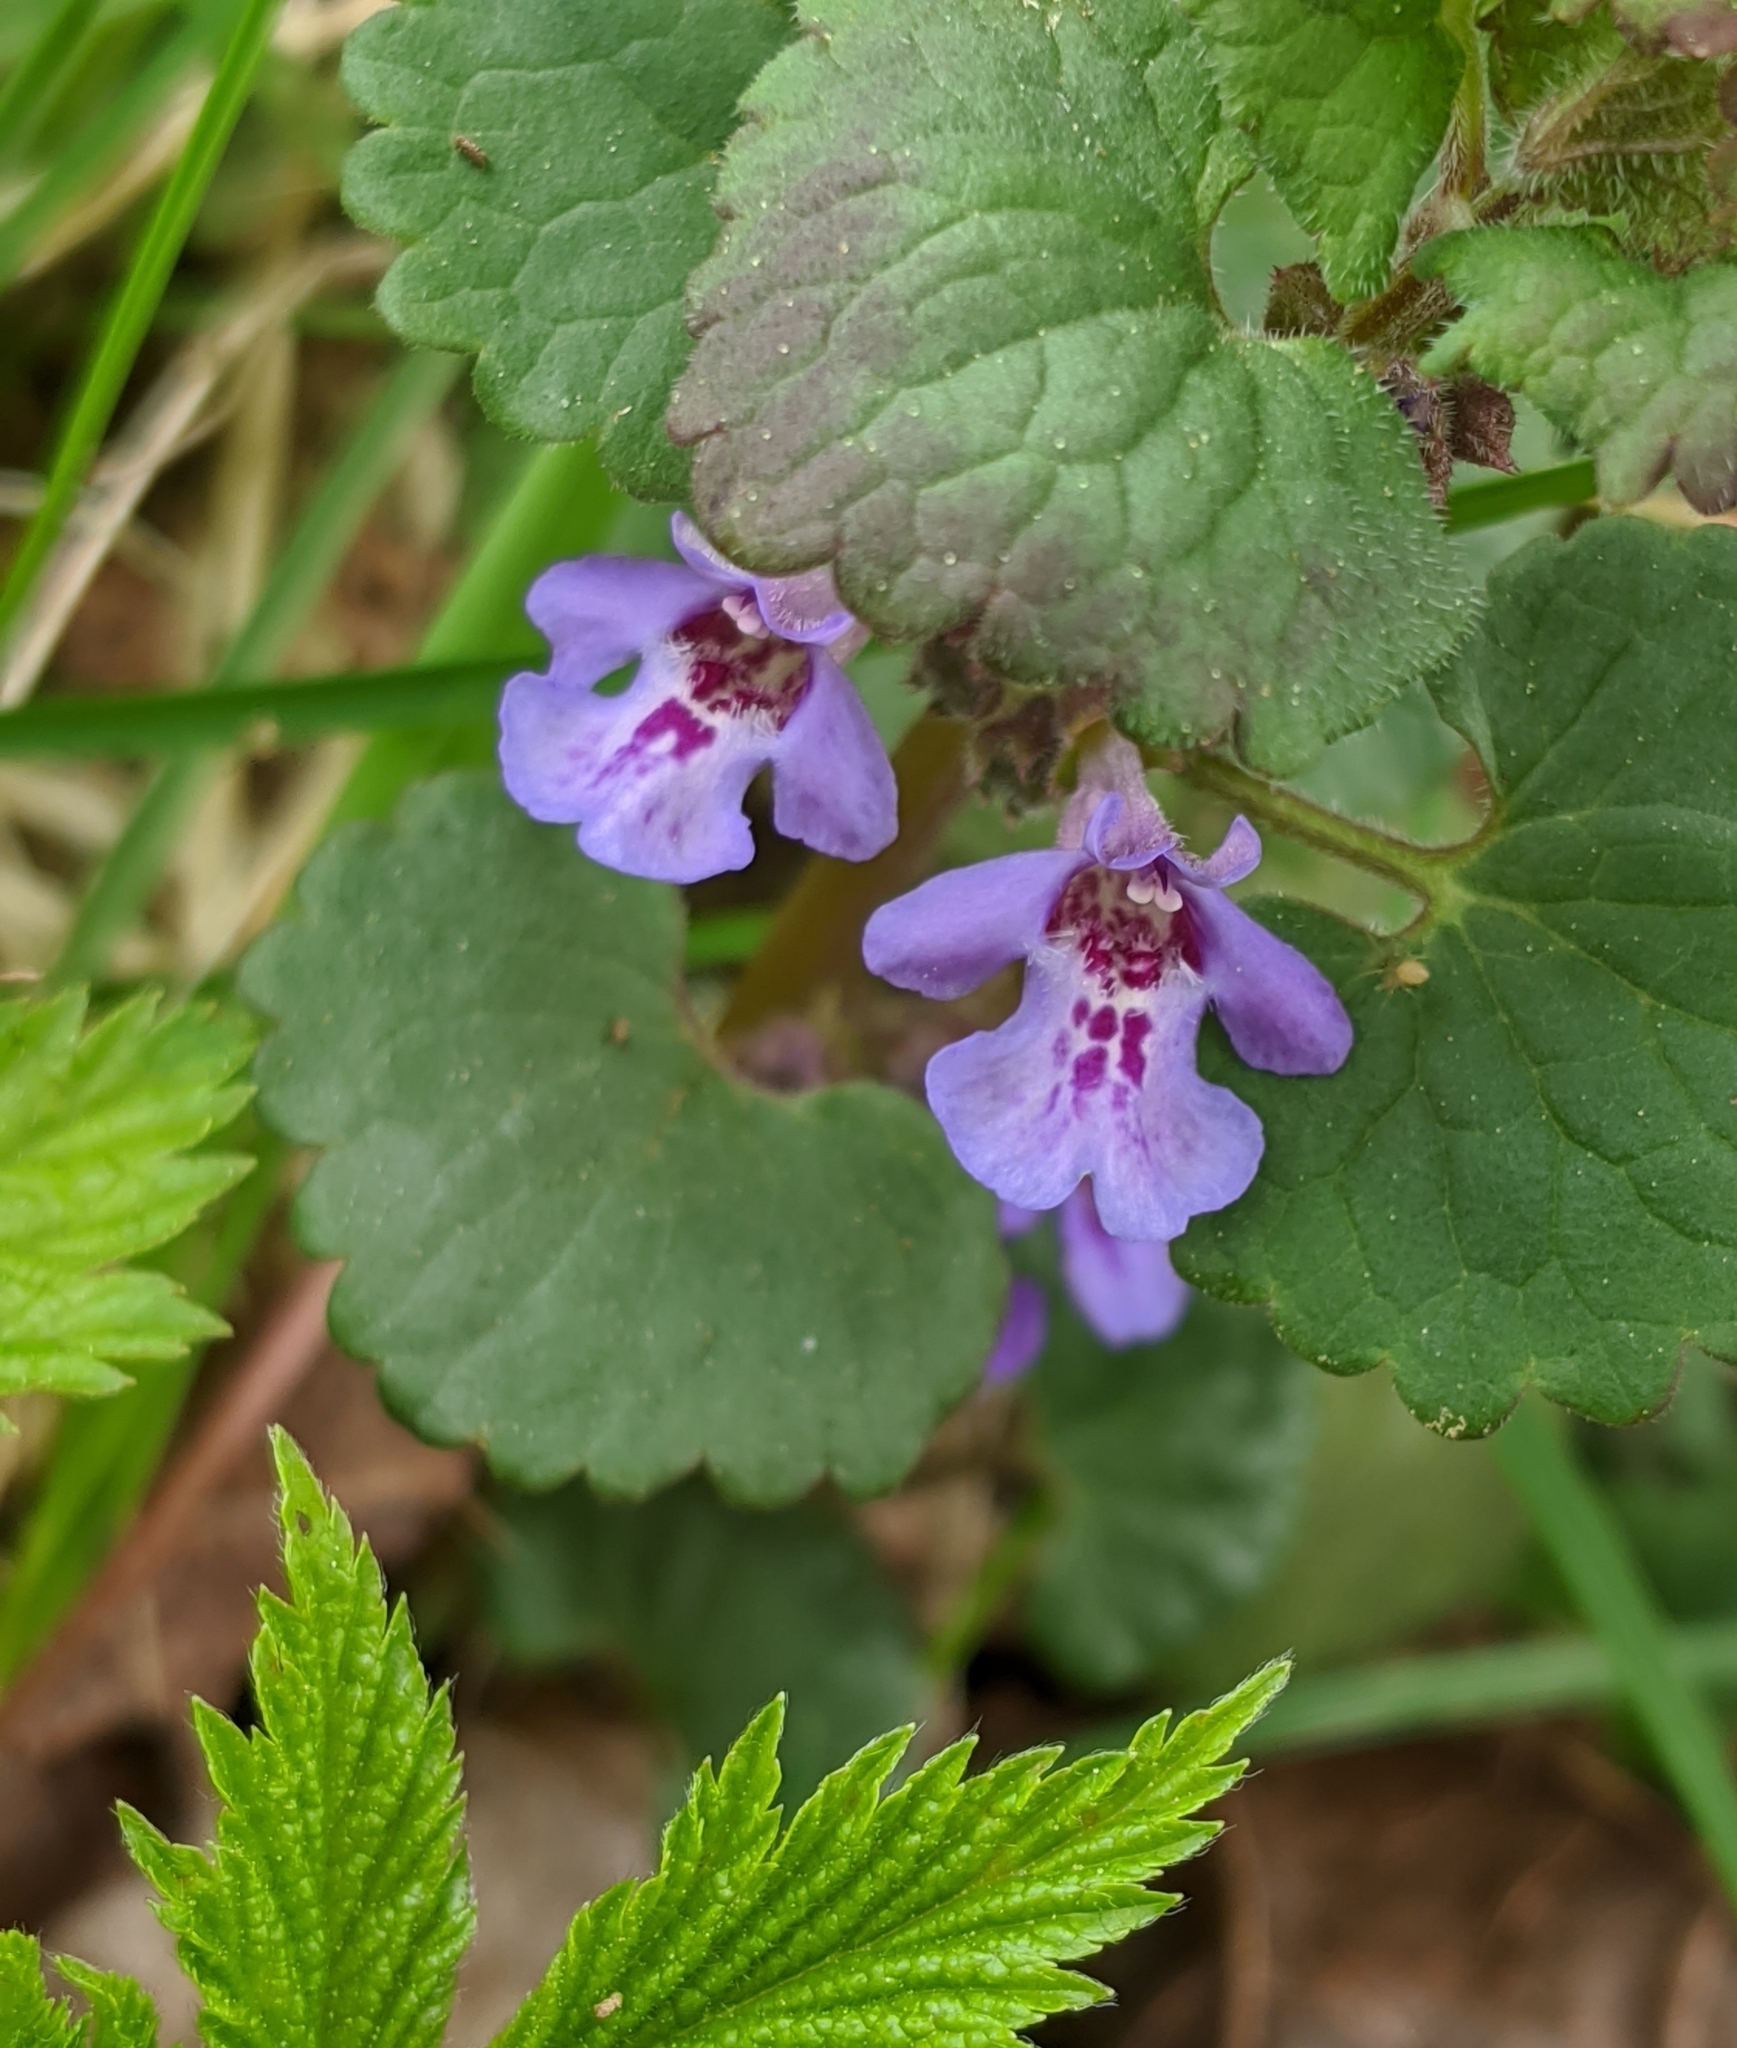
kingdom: Plantae
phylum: Tracheophyta
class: Magnoliopsida
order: Lamiales
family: Lamiaceae
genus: Glechoma
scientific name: Glechoma hederacea
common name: Ground ivy
